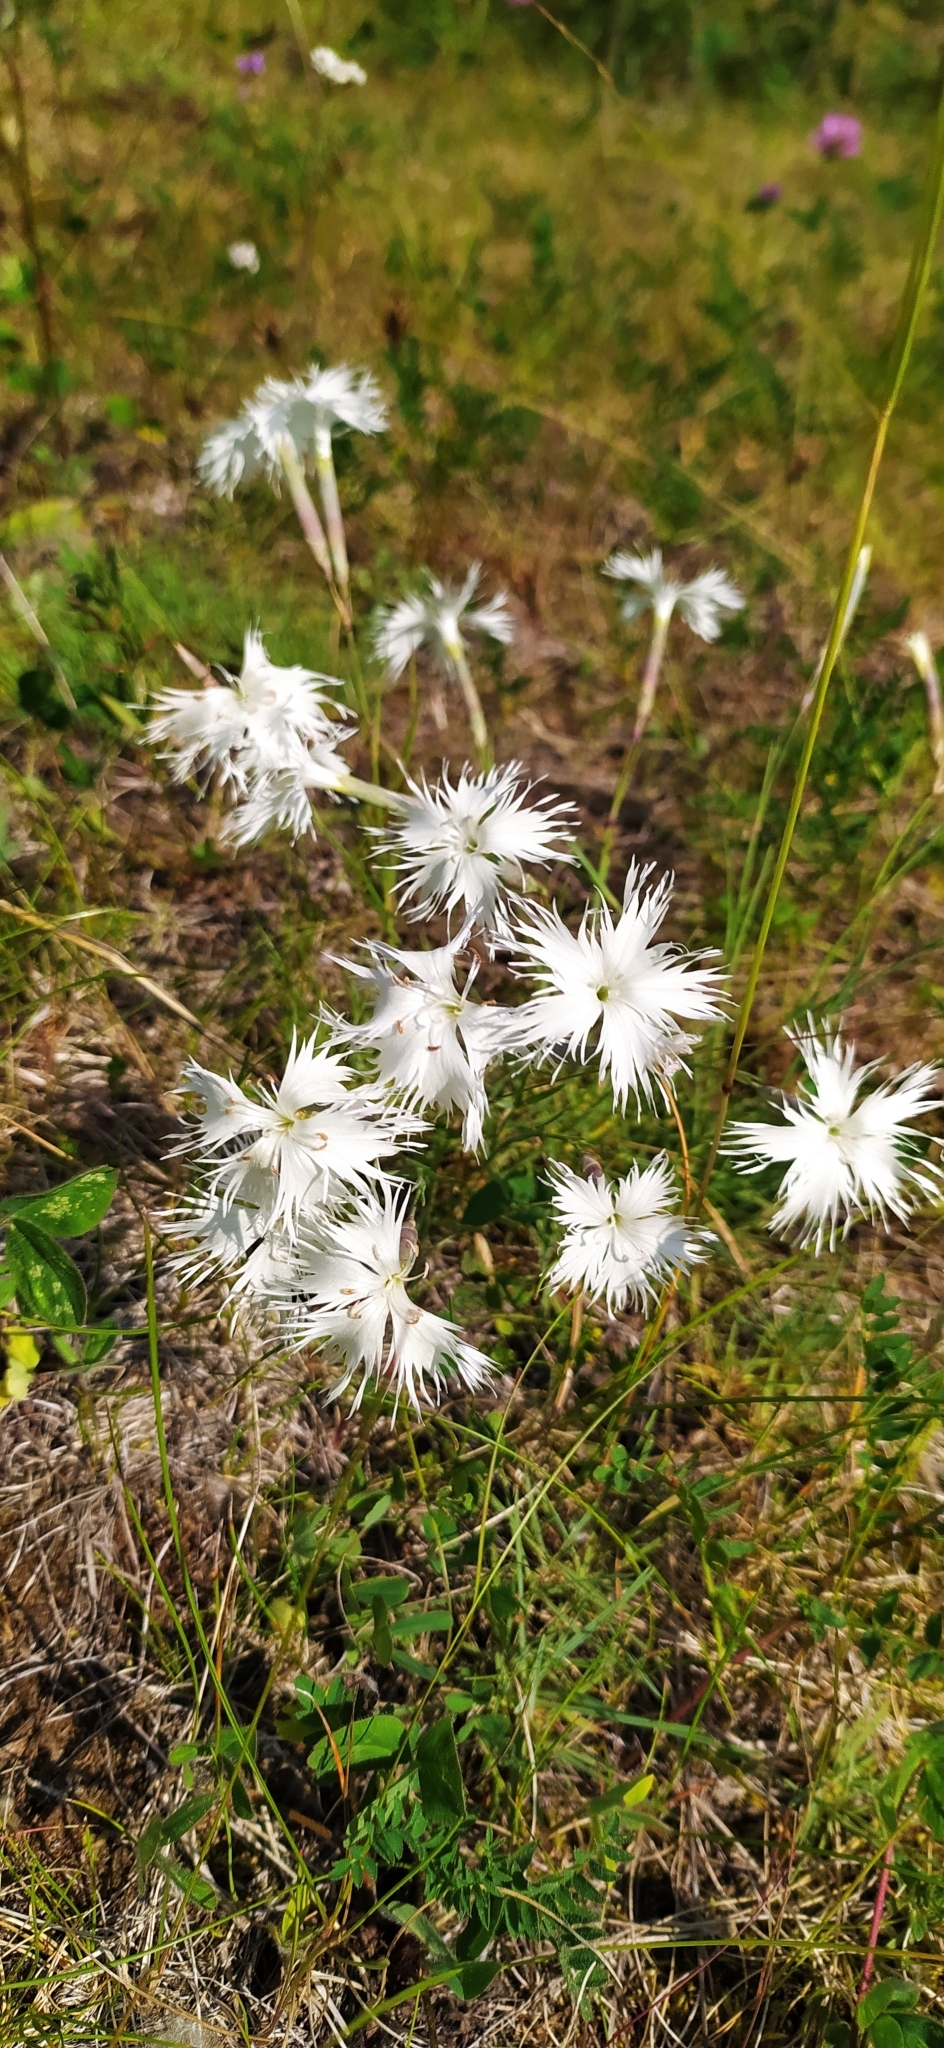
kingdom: Plantae
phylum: Tracheophyta
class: Magnoliopsida
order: Caryophyllales
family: Caryophyllaceae
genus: Dianthus
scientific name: Dianthus acicularis
